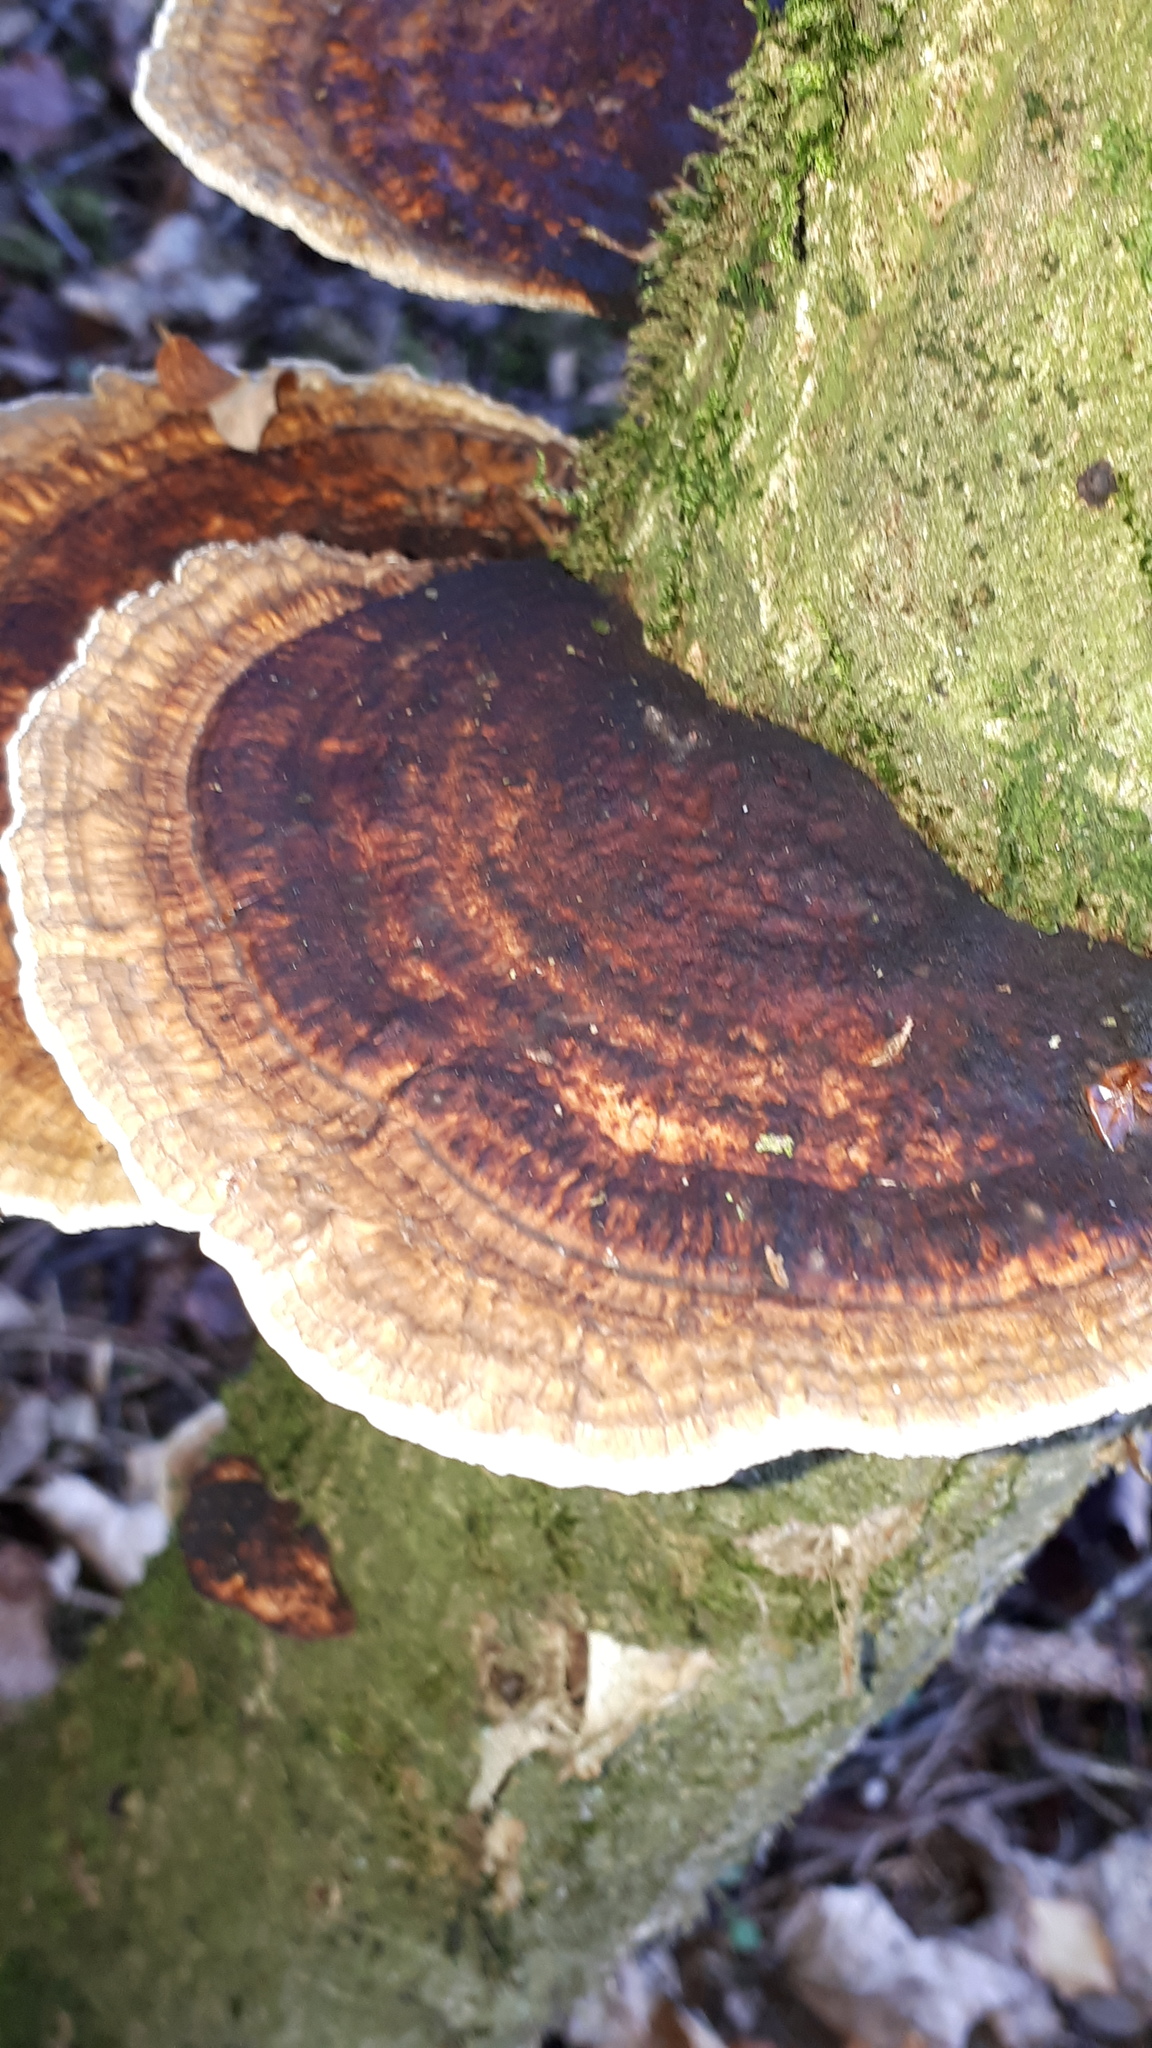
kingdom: Fungi
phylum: Basidiomycota
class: Agaricomycetes
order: Polyporales
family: Polyporaceae
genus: Daedaleopsis
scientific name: Daedaleopsis confragosa
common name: Blushing bracket
